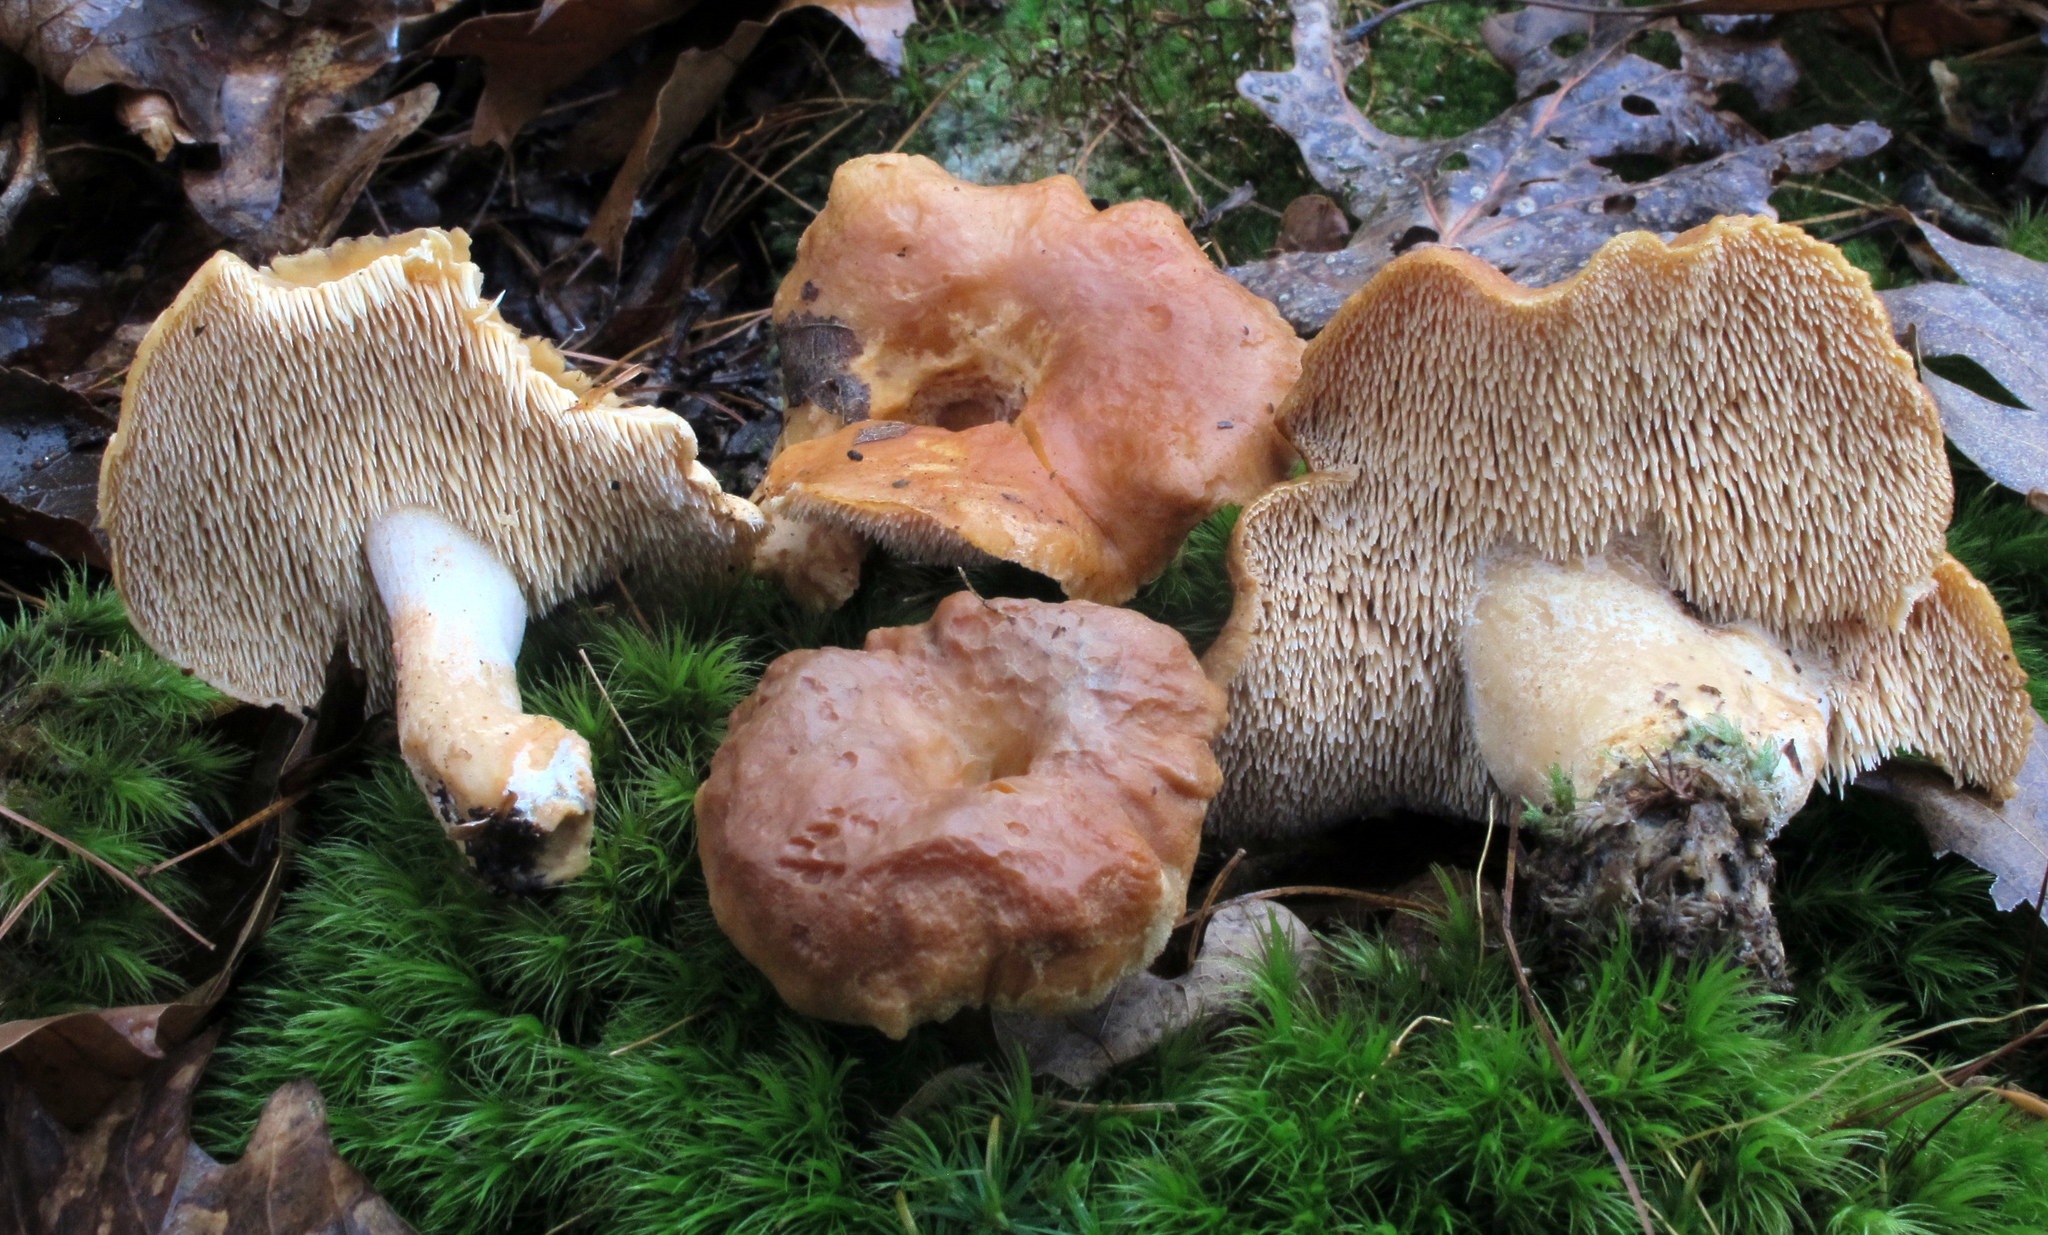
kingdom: Fungi
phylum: Basidiomycota
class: Agaricomycetes
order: Cantharellales
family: Hydnaceae
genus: Hydnum
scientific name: Hydnum umbilicatum
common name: Umbilicate hedgehog
